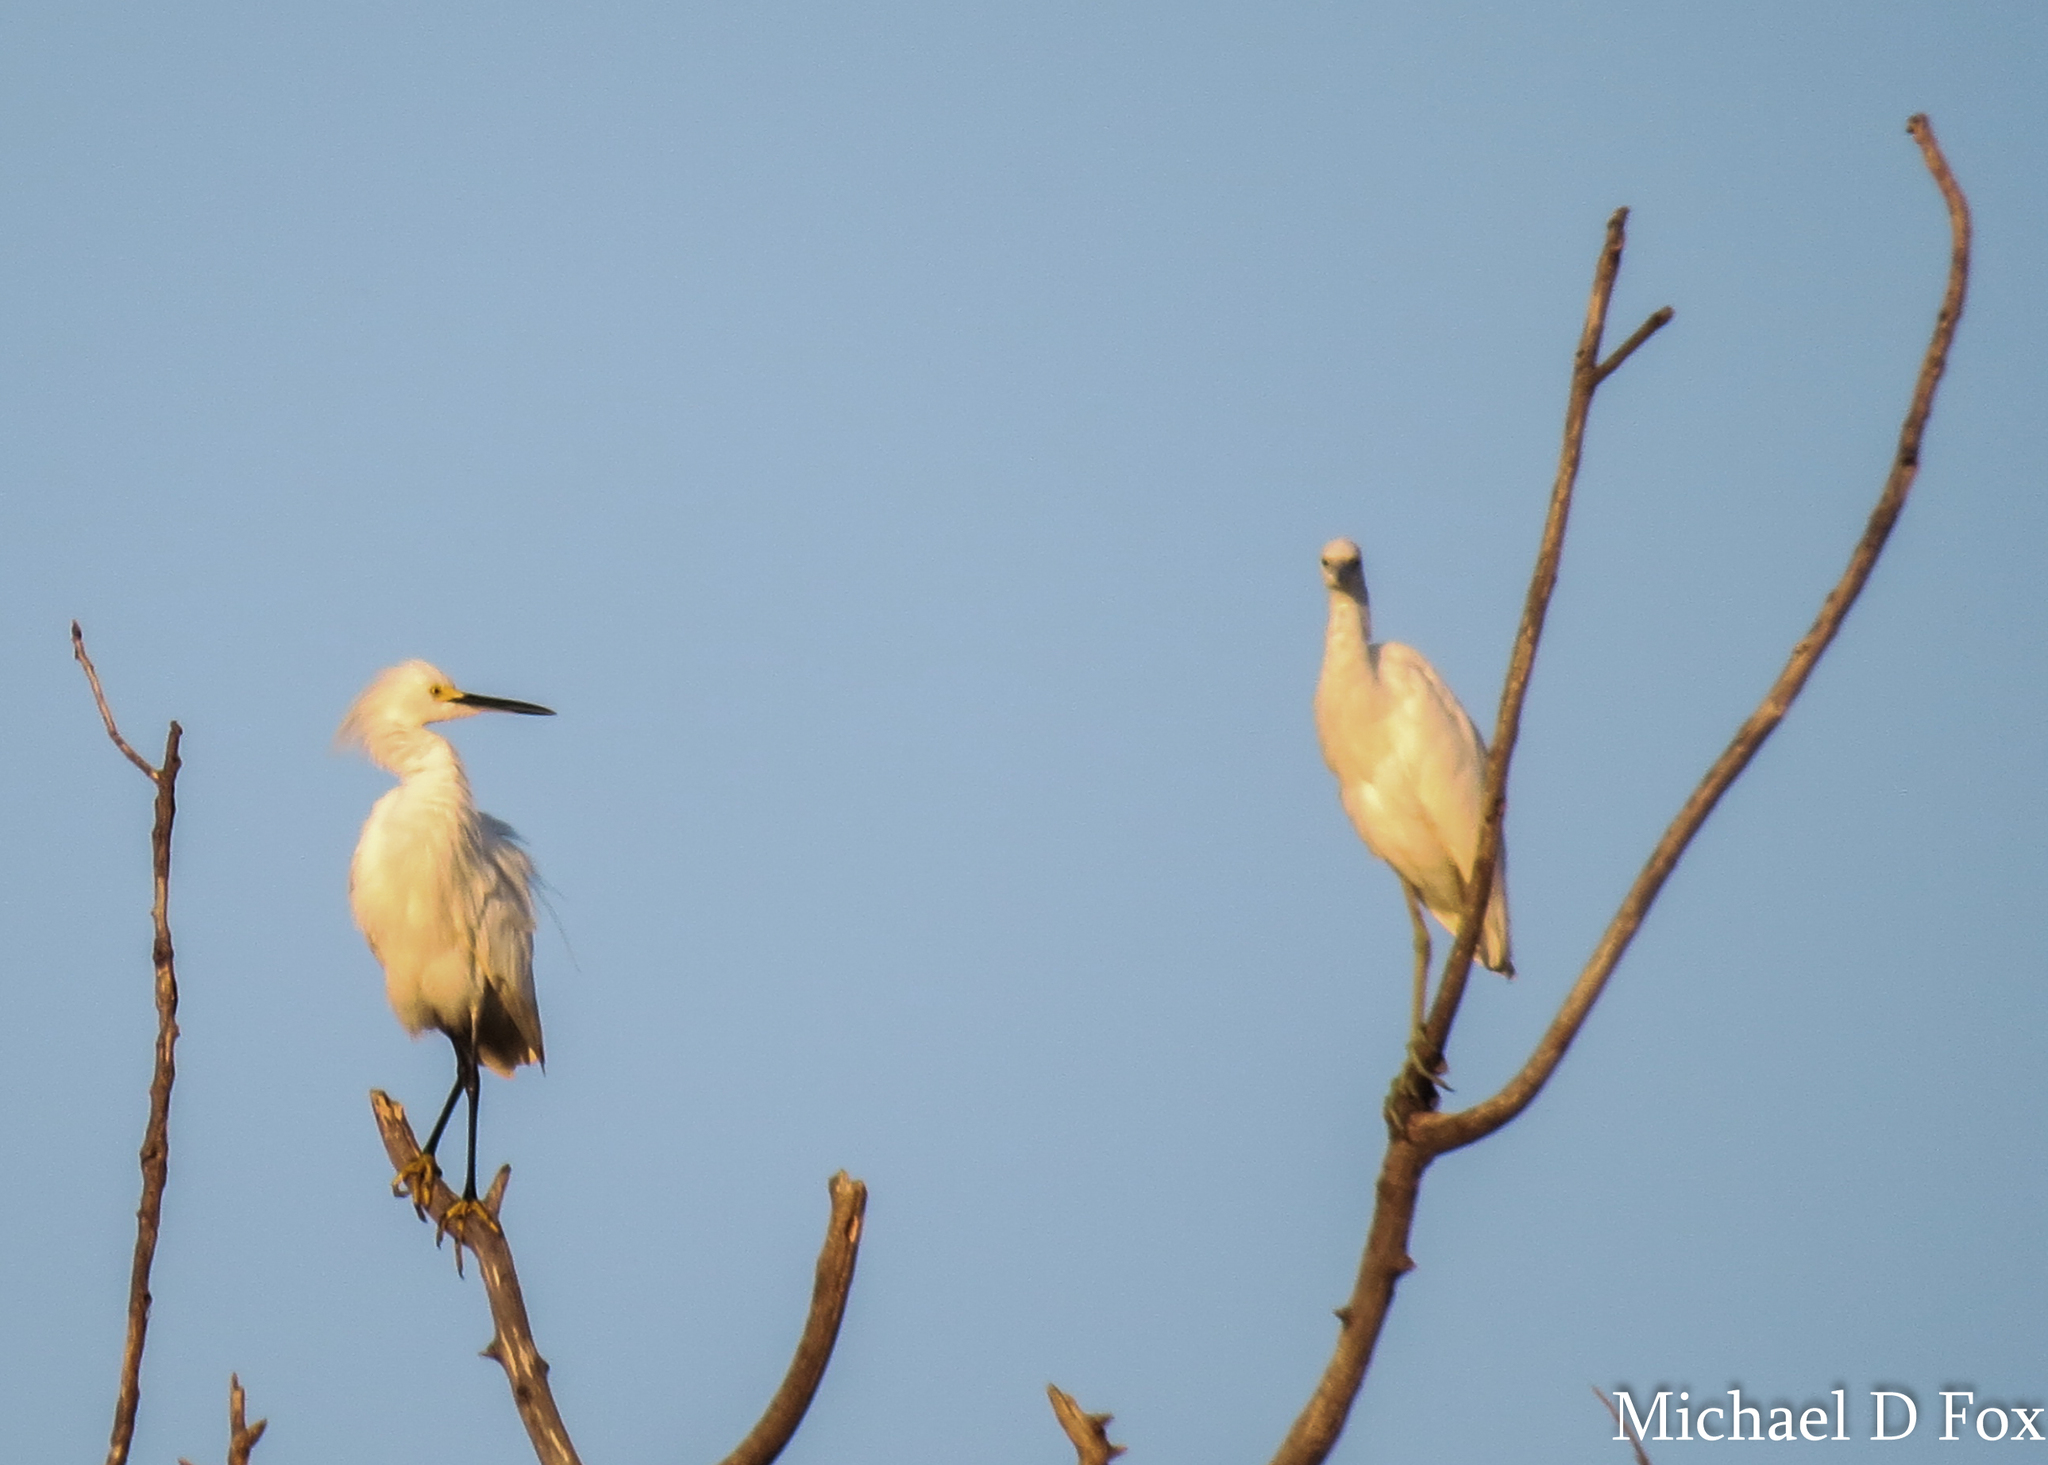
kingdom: Animalia
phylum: Chordata
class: Aves
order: Pelecaniformes
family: Ardeidae
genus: Egretta
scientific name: Egretta thula
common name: Snowy egret
